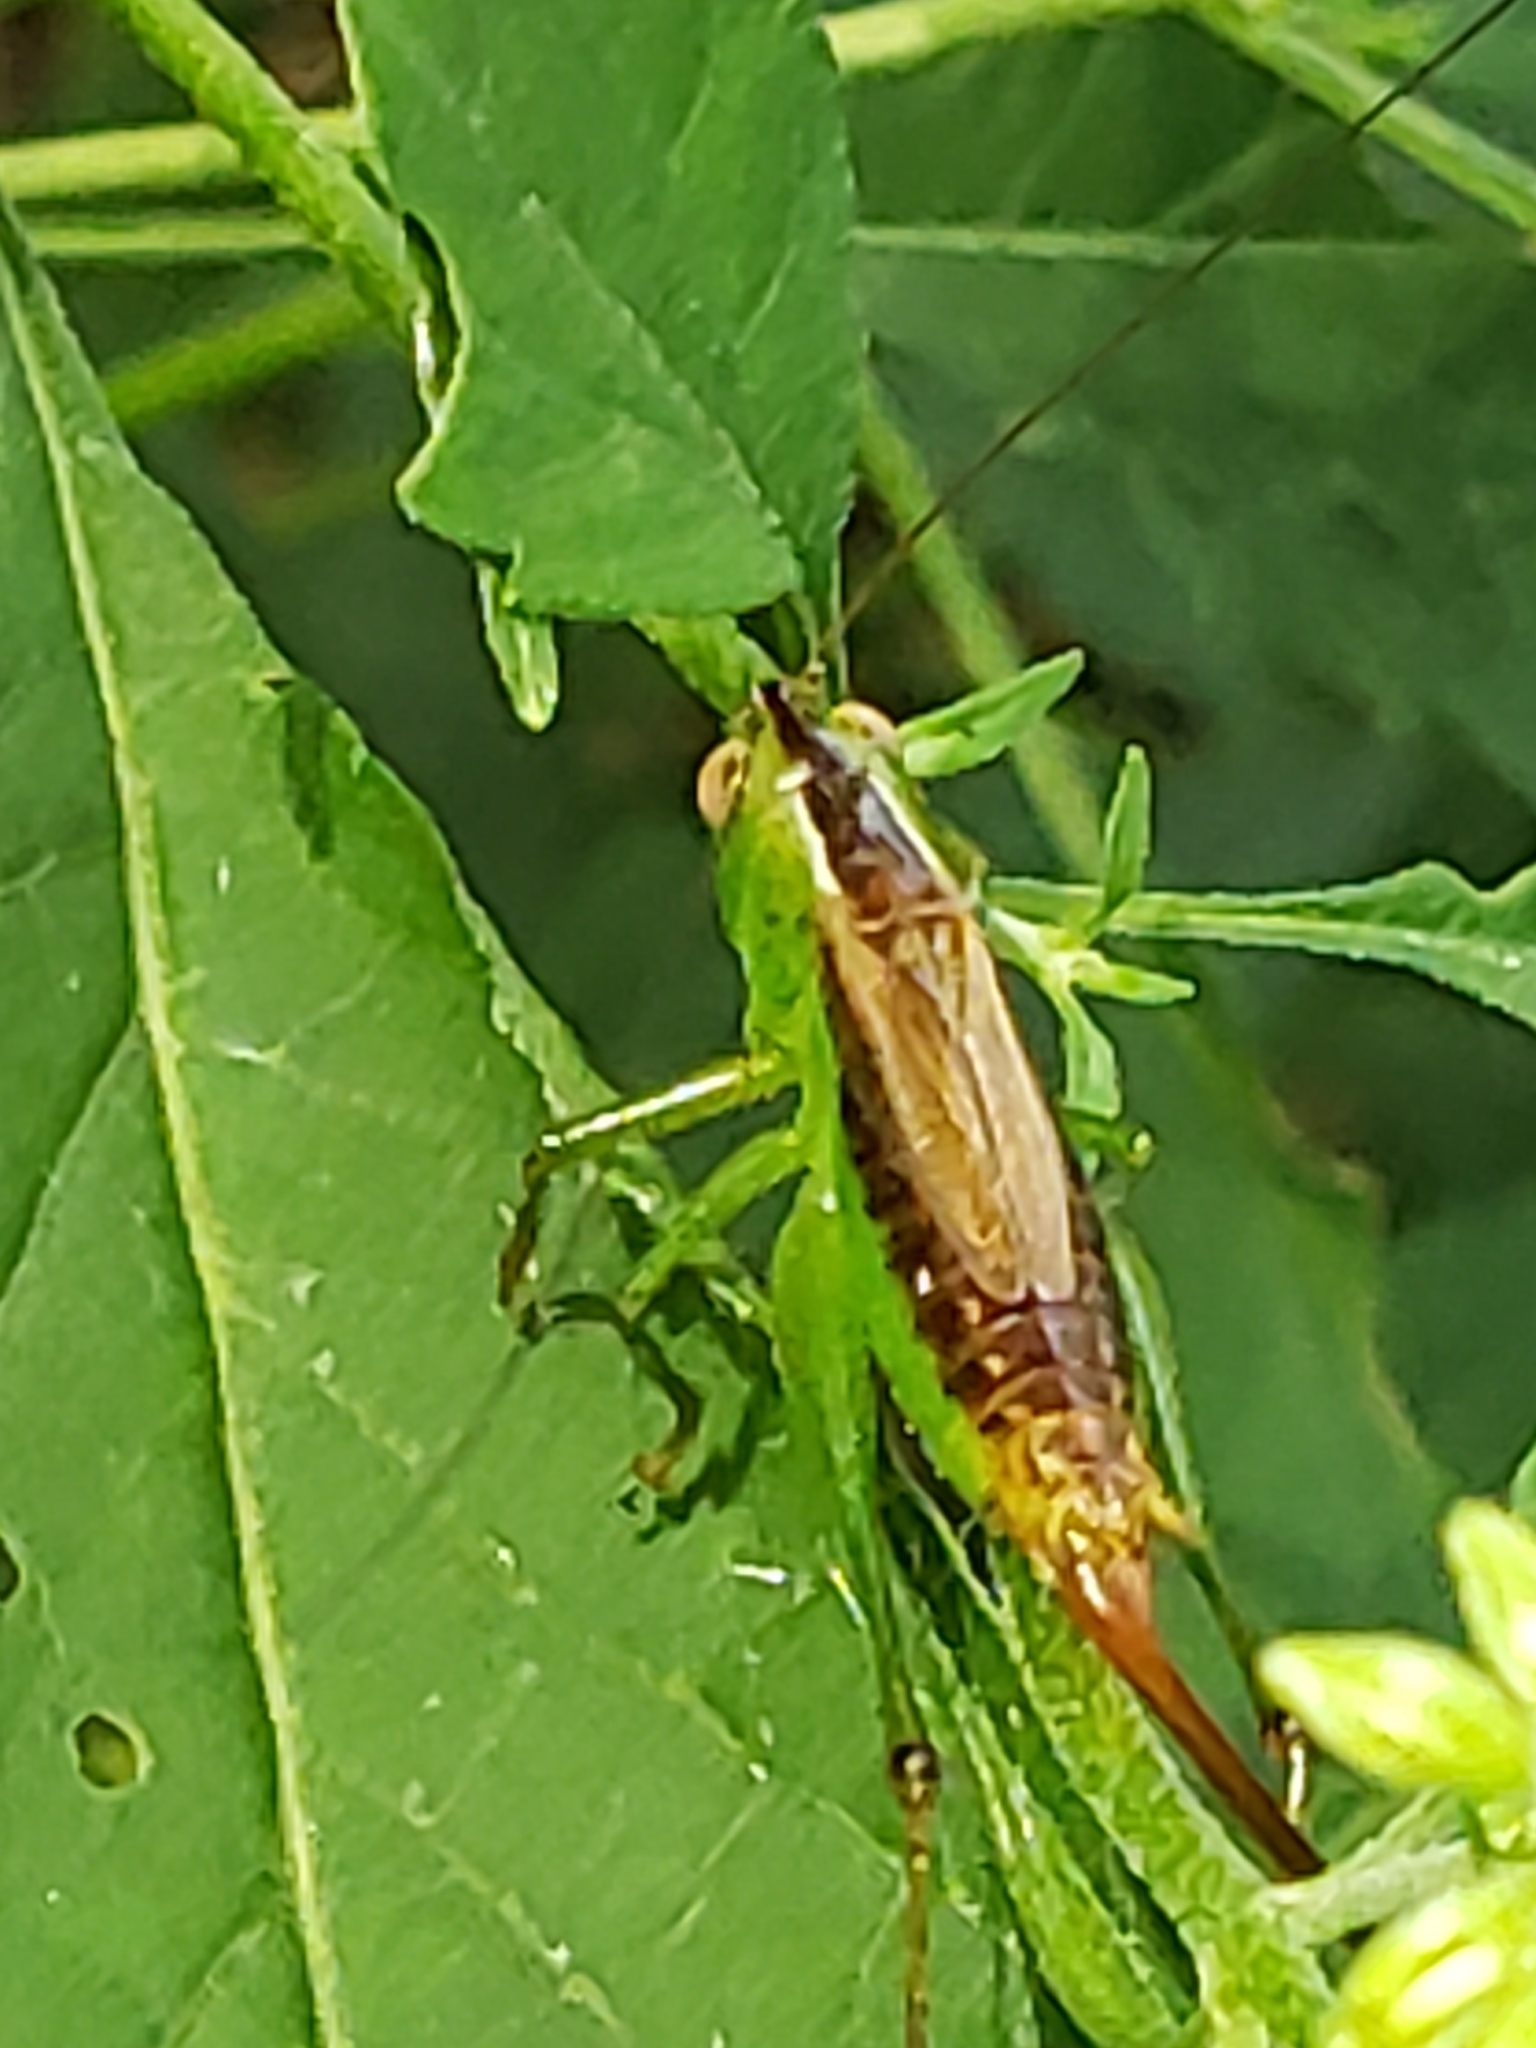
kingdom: Animalia
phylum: Arthropoda
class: Insecta
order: Orthoptera
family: Tettigoniidae
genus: Conocephalus
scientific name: Conocephalus brevipennis
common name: Short-winged meadow katydid
